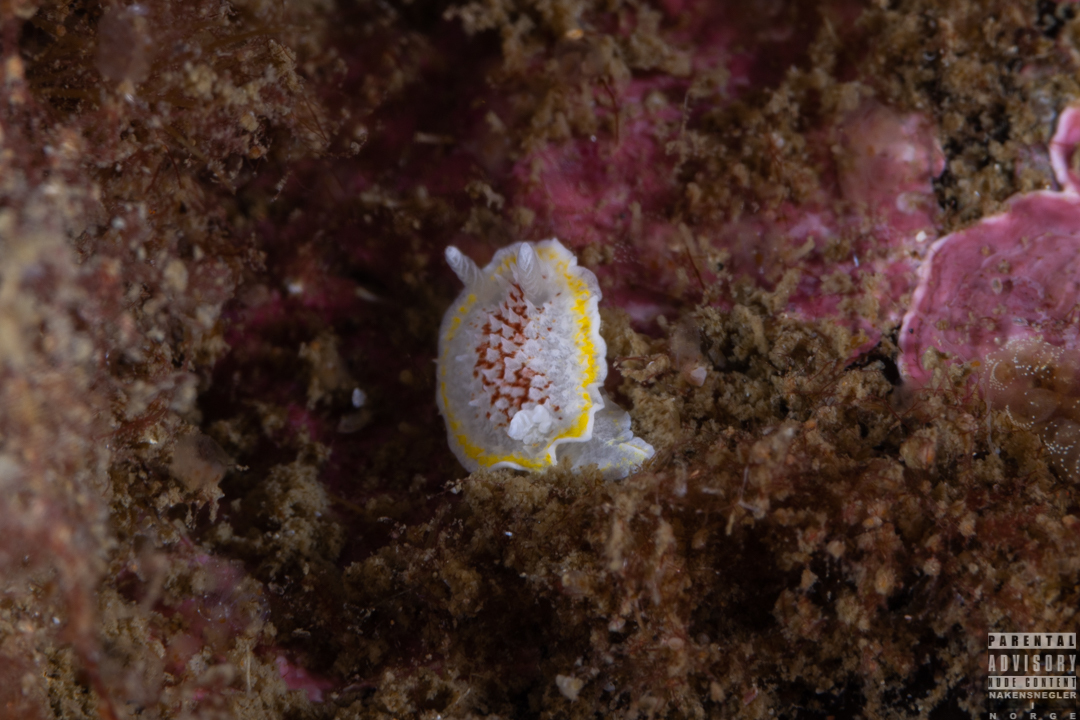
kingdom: Animalia
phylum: Mollusca
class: Gastropoda
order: Nudibranchia
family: Calycidorididae
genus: Diaphorodoris
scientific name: Diaphorodoris luteocincta
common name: Fried egg nudibranch
